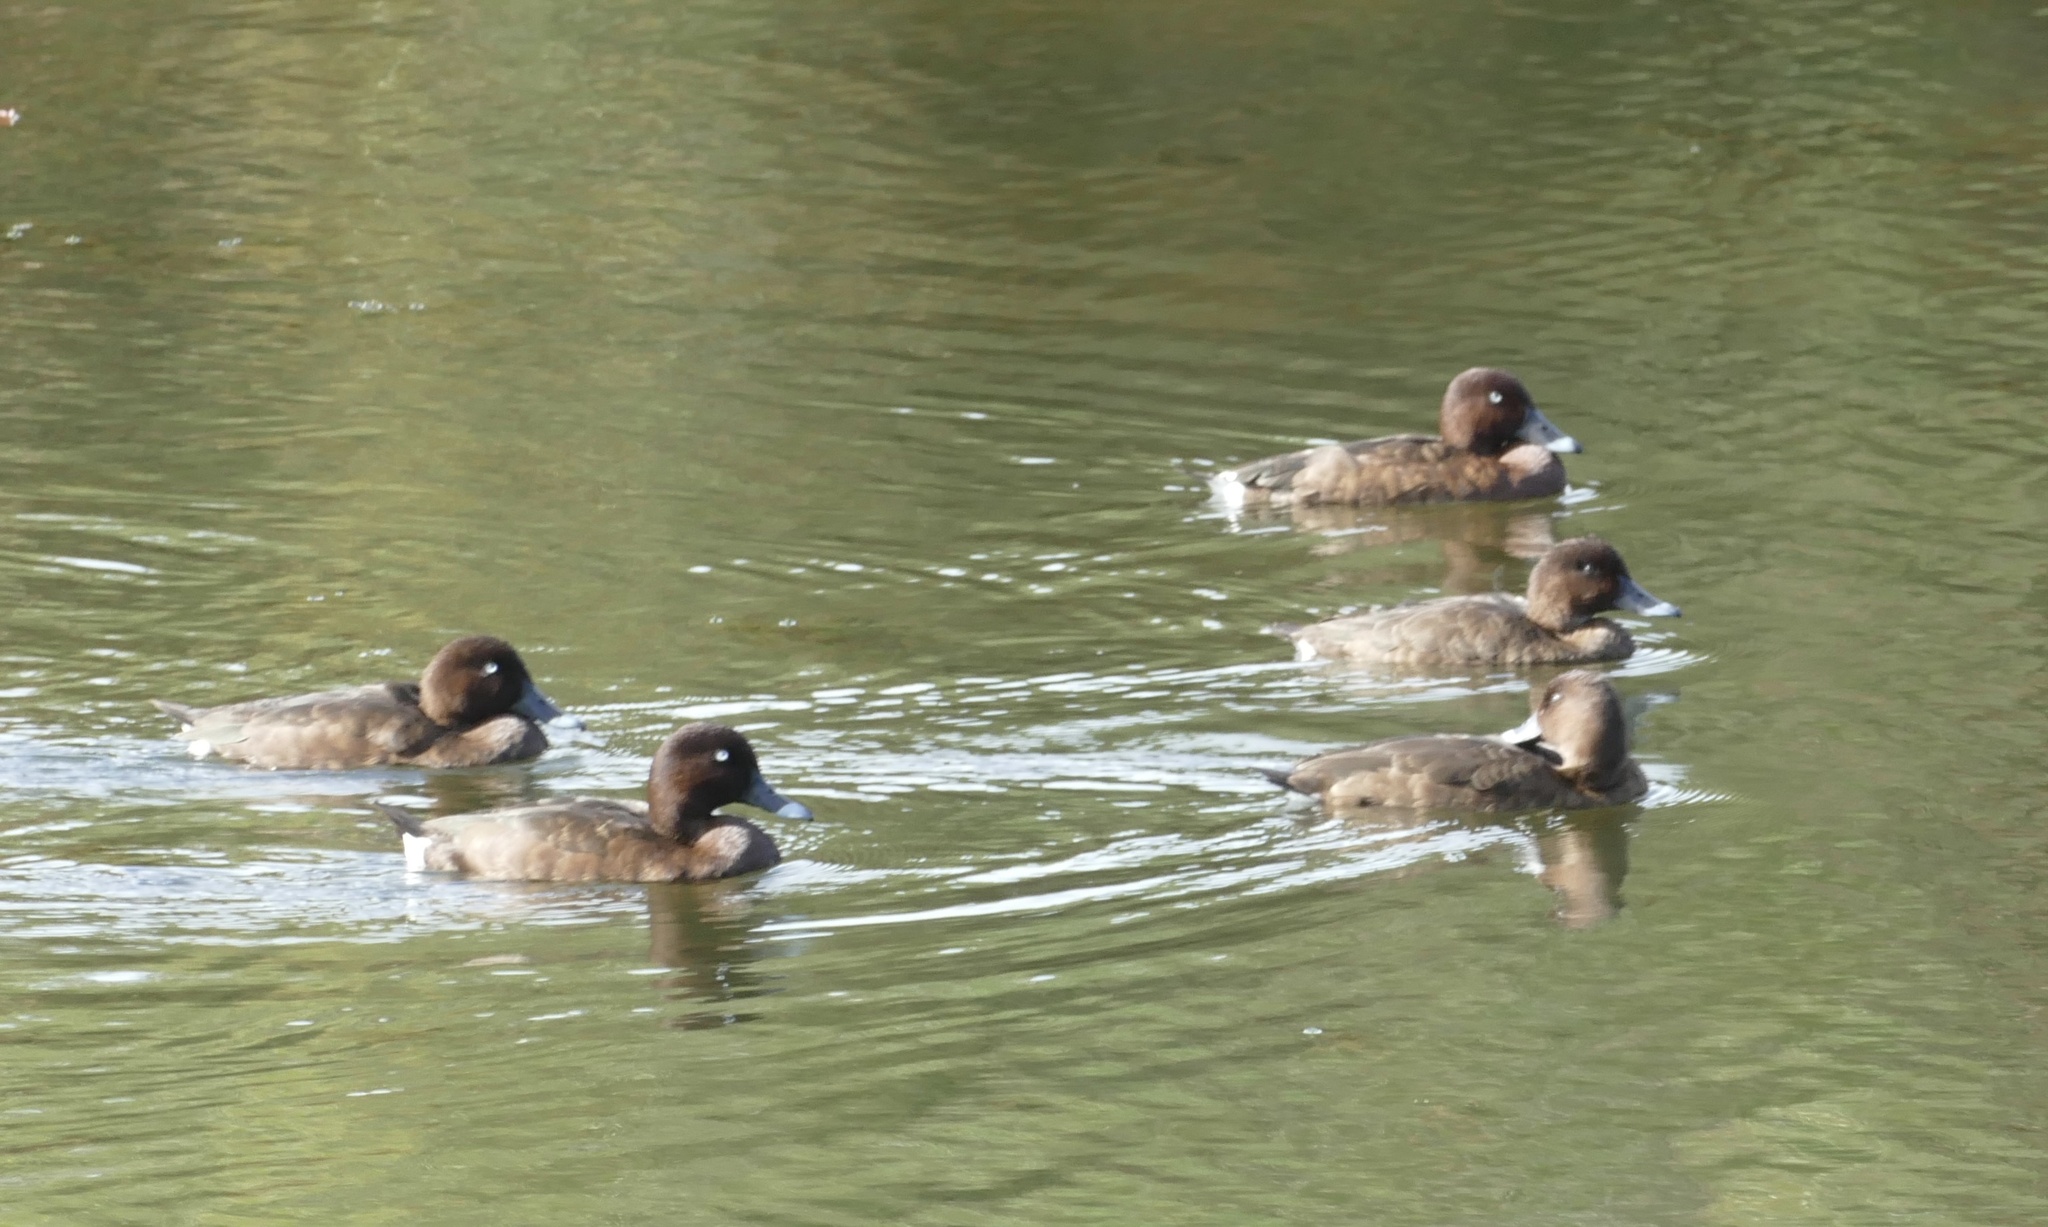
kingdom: Animalia
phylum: Chordata
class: Aves
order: Anseriformes
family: Anatidae
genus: Aythya
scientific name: Aythya australis
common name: Hardhead
